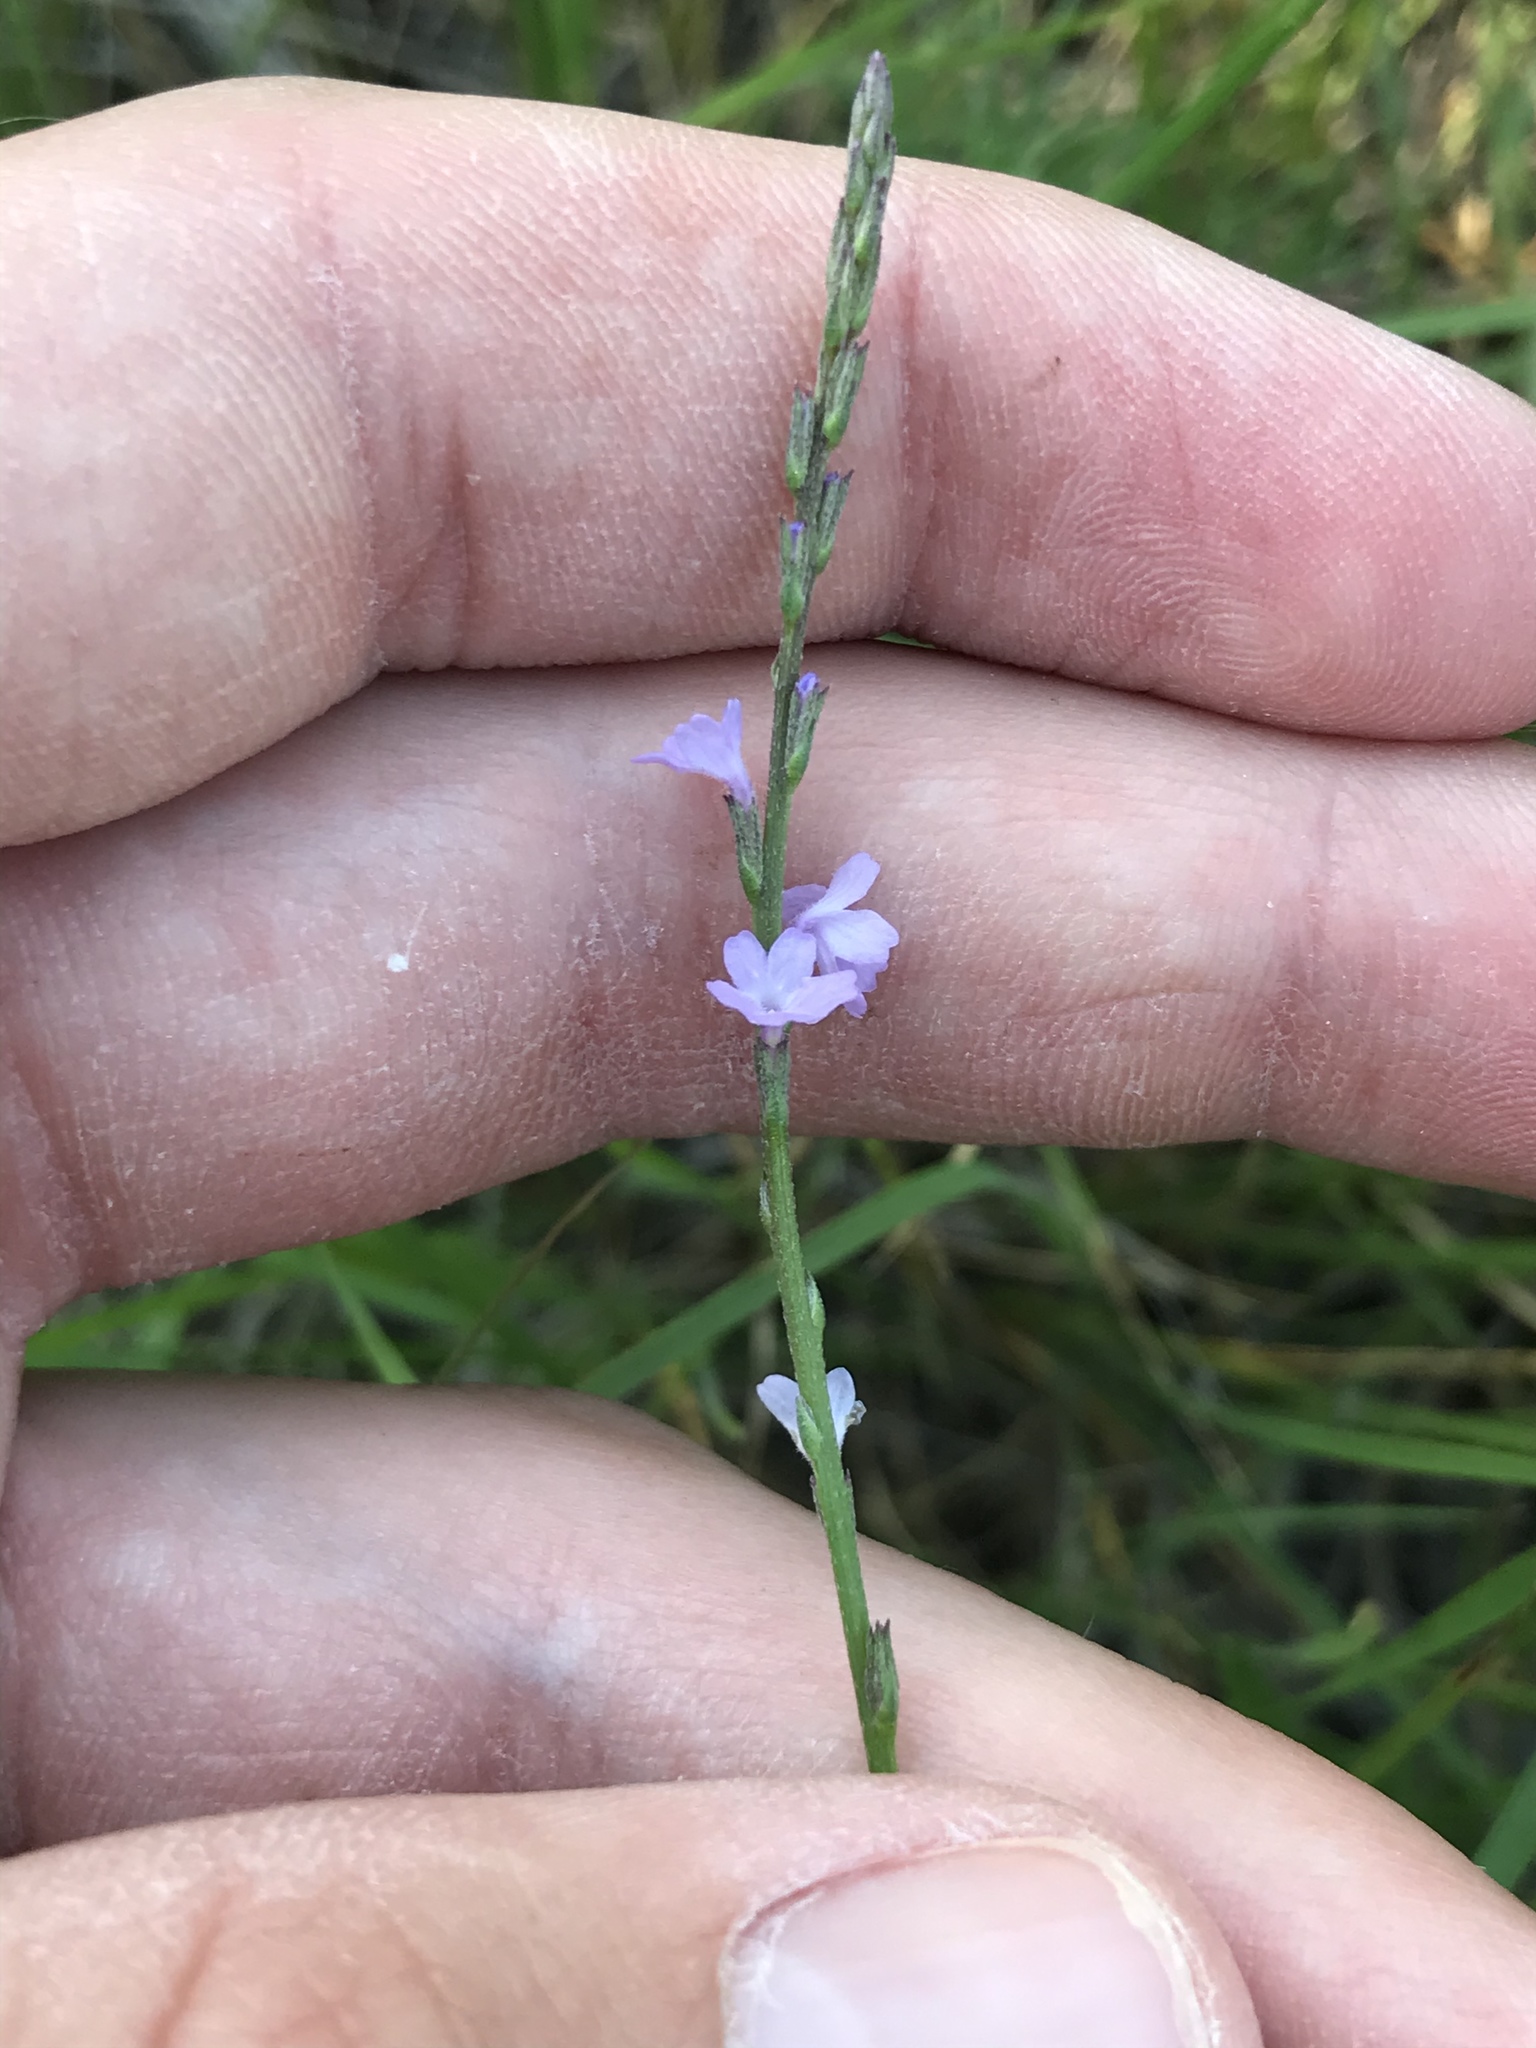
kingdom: Plantae
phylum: Tracheophyta
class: Magnoliopsida
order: Lamiales
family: Verbenaceae
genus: Verbena
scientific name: Verbena halei
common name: Texas vervain
